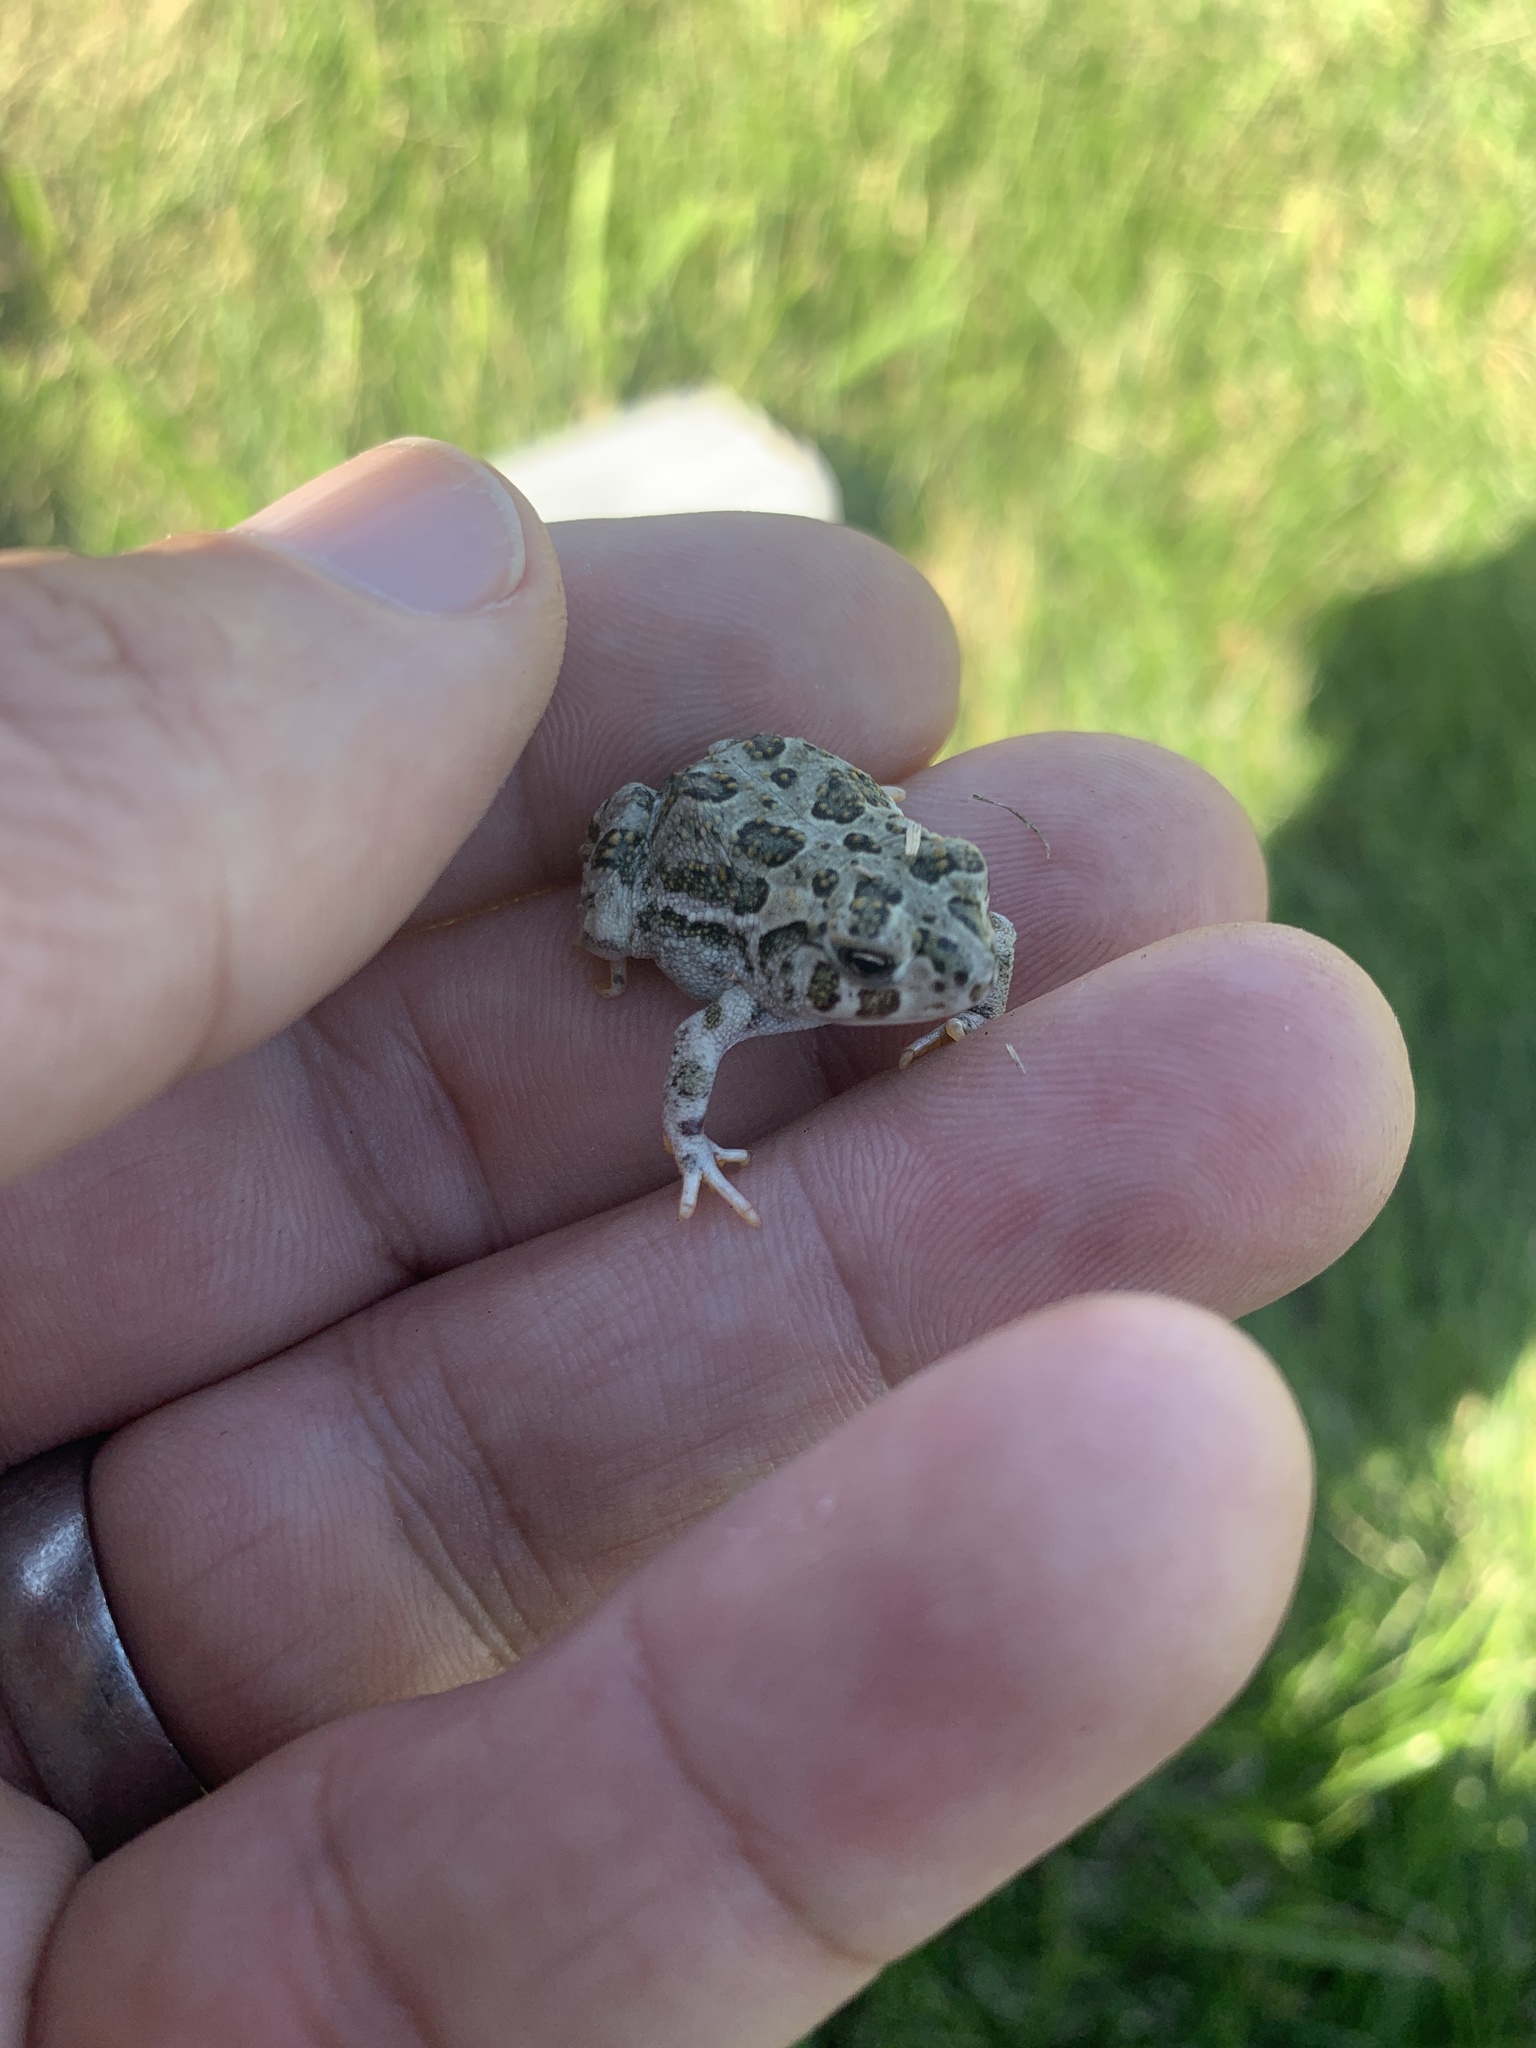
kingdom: Animalia
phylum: Chordata
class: Amphibia
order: Anura
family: Bufonidae
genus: Anaxyrus
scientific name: Anaxyrus cognatus
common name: Great plains toad
